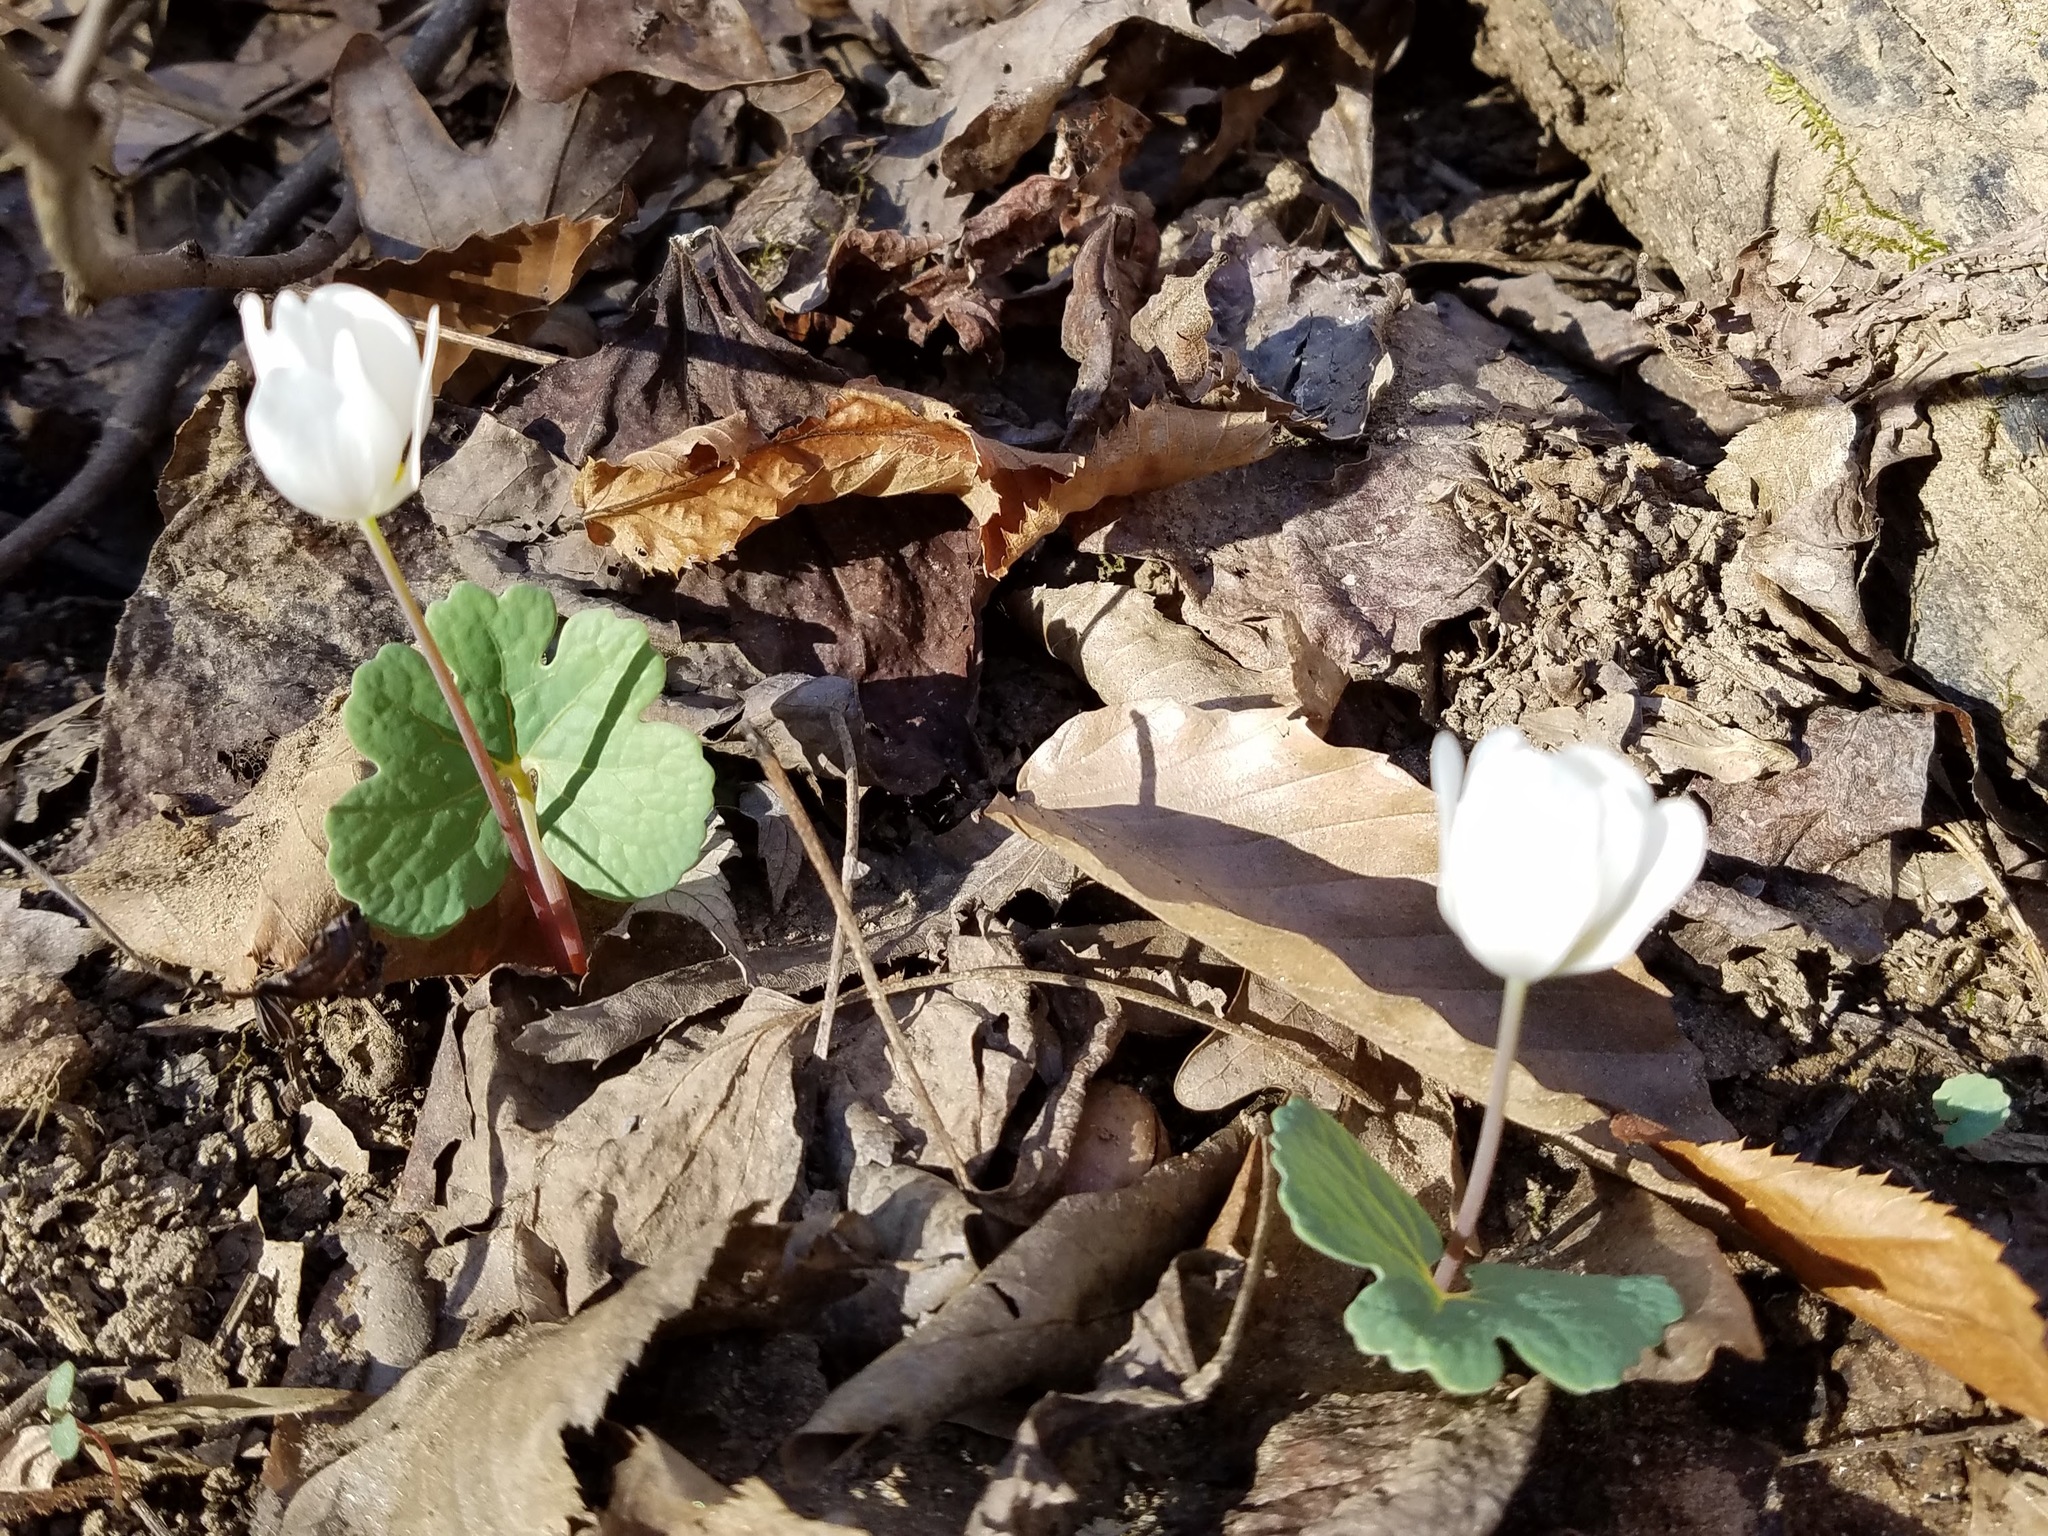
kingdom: Plantae
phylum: Tracheophyta
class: Magnoliopsida
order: Ranunculales
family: Papaveraceae
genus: Sanguinaria
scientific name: Sanguinaria canadensis
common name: Bloodroot
